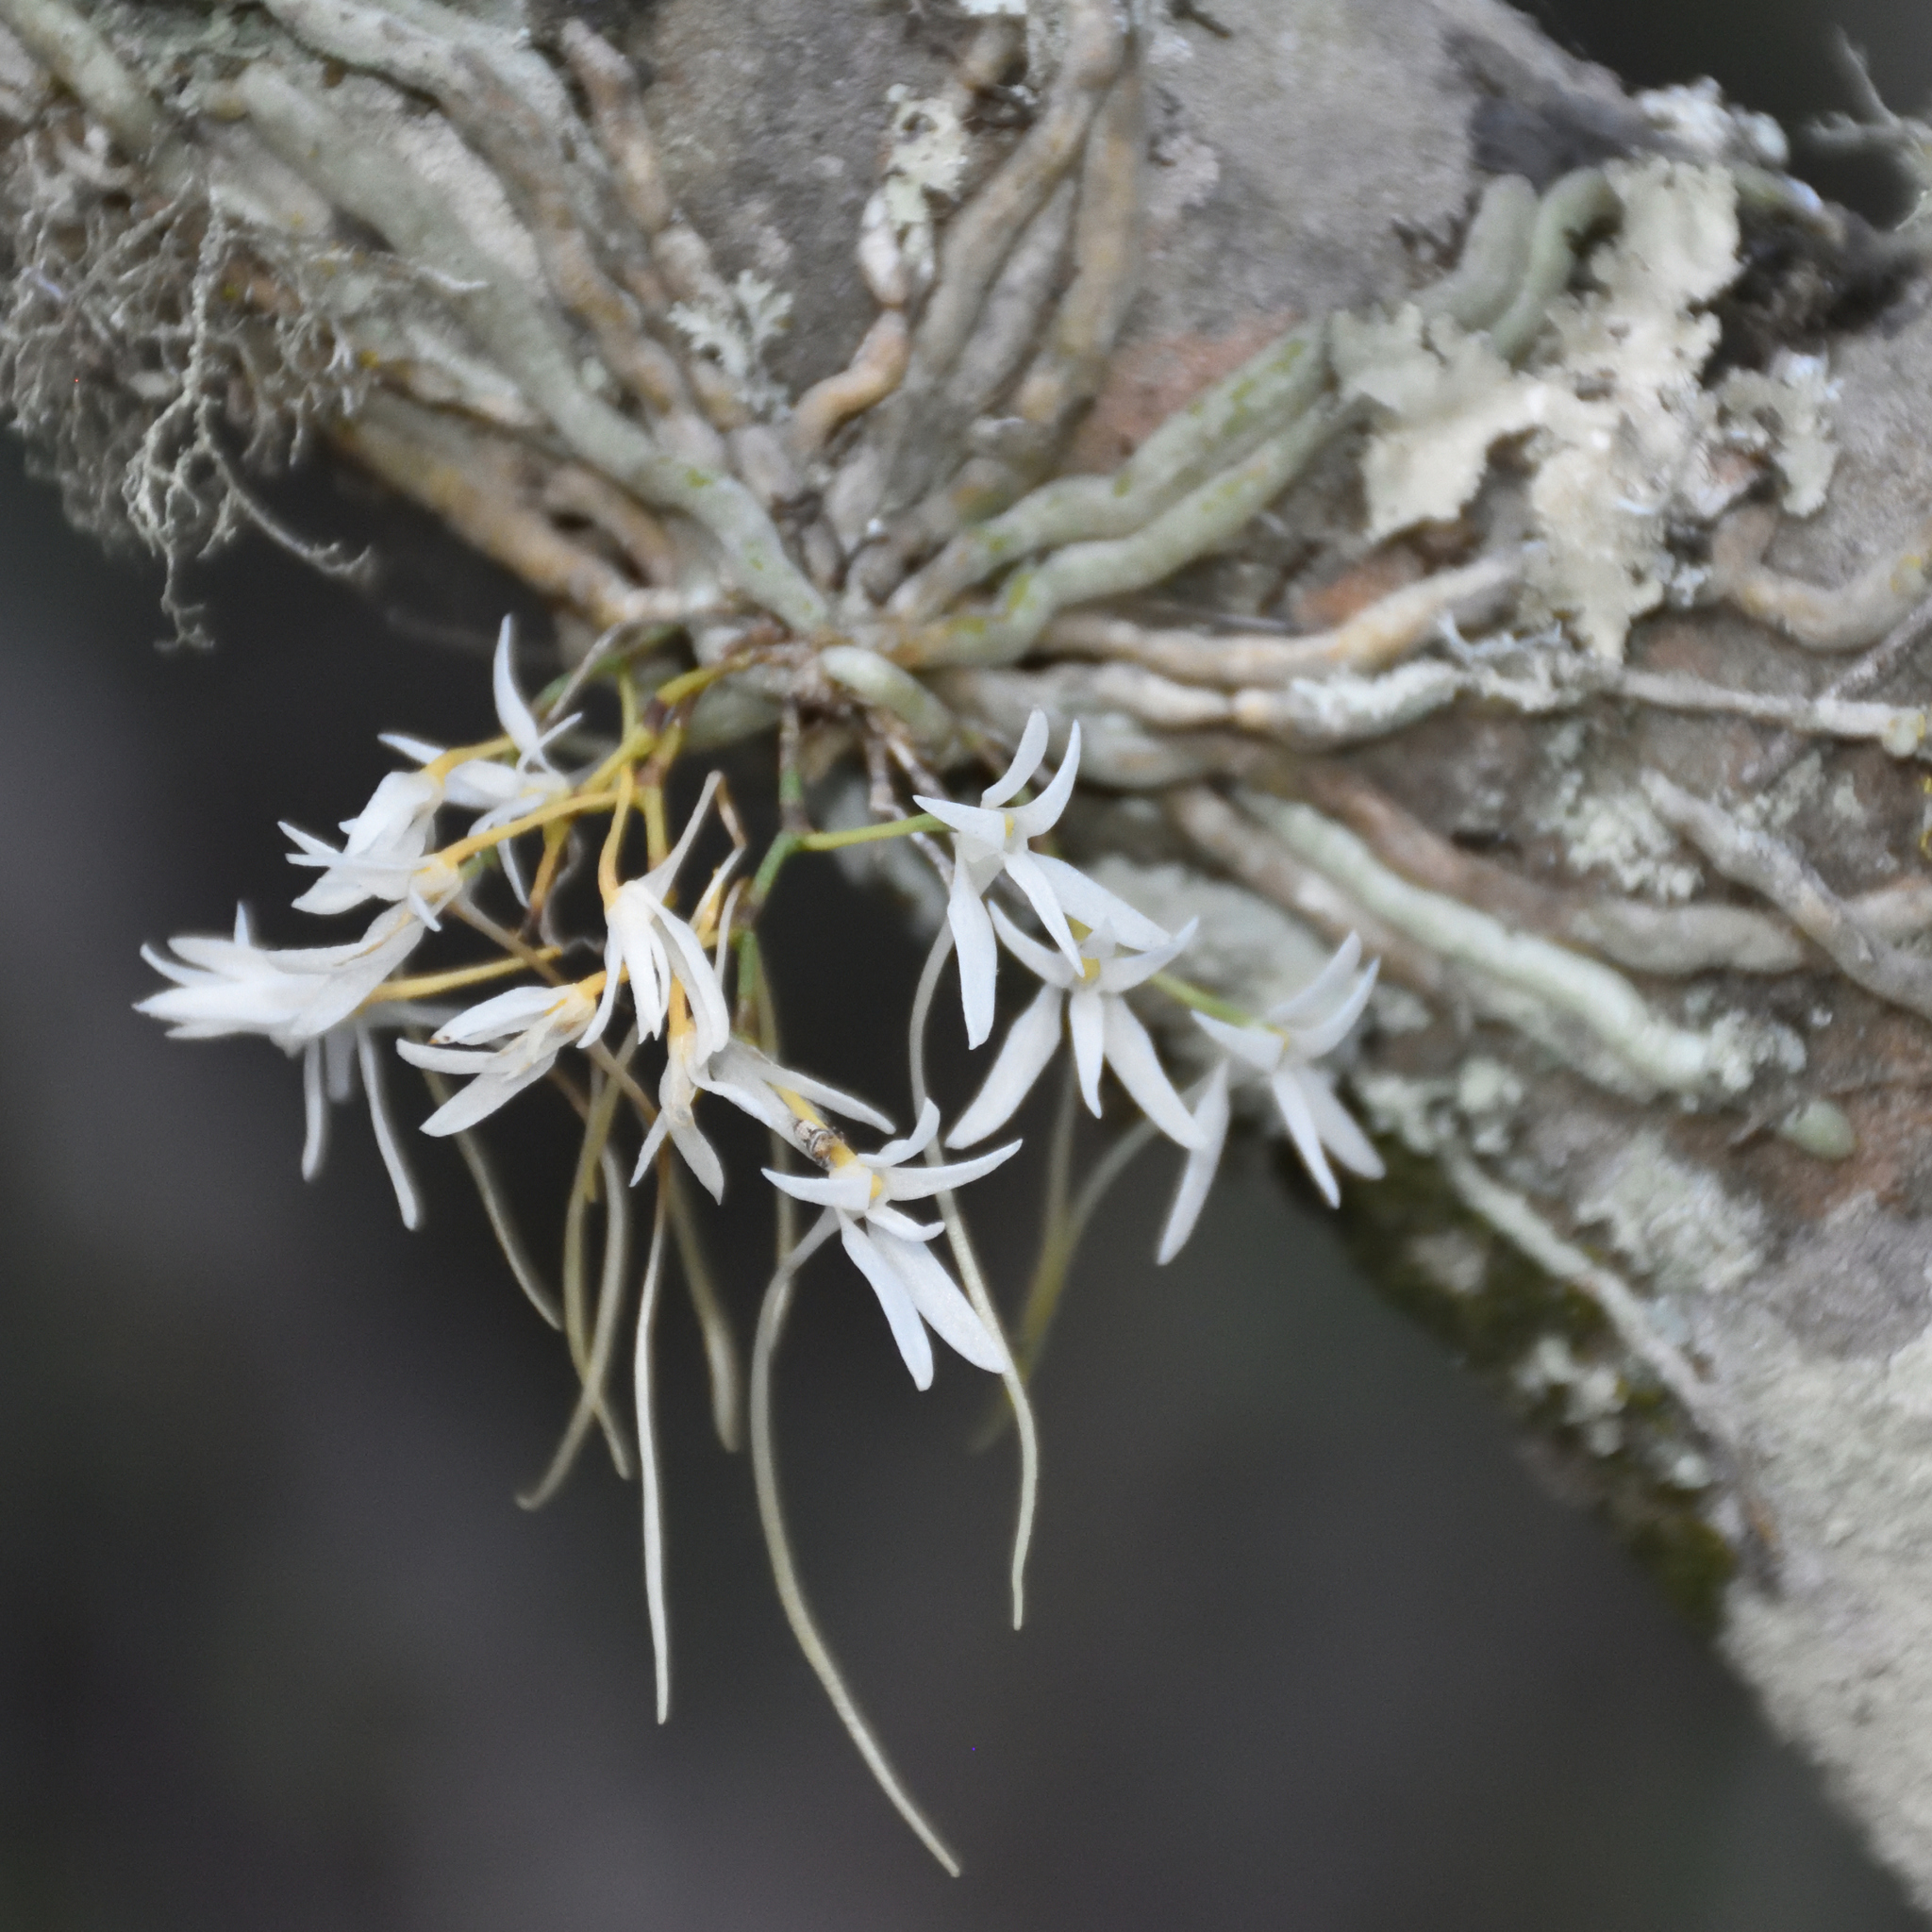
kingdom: Plantae
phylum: Tracheophyta
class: Liliopsida
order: Asparagales
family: Orchidaceae
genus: Mystacidium
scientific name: Mystacidium venosum
